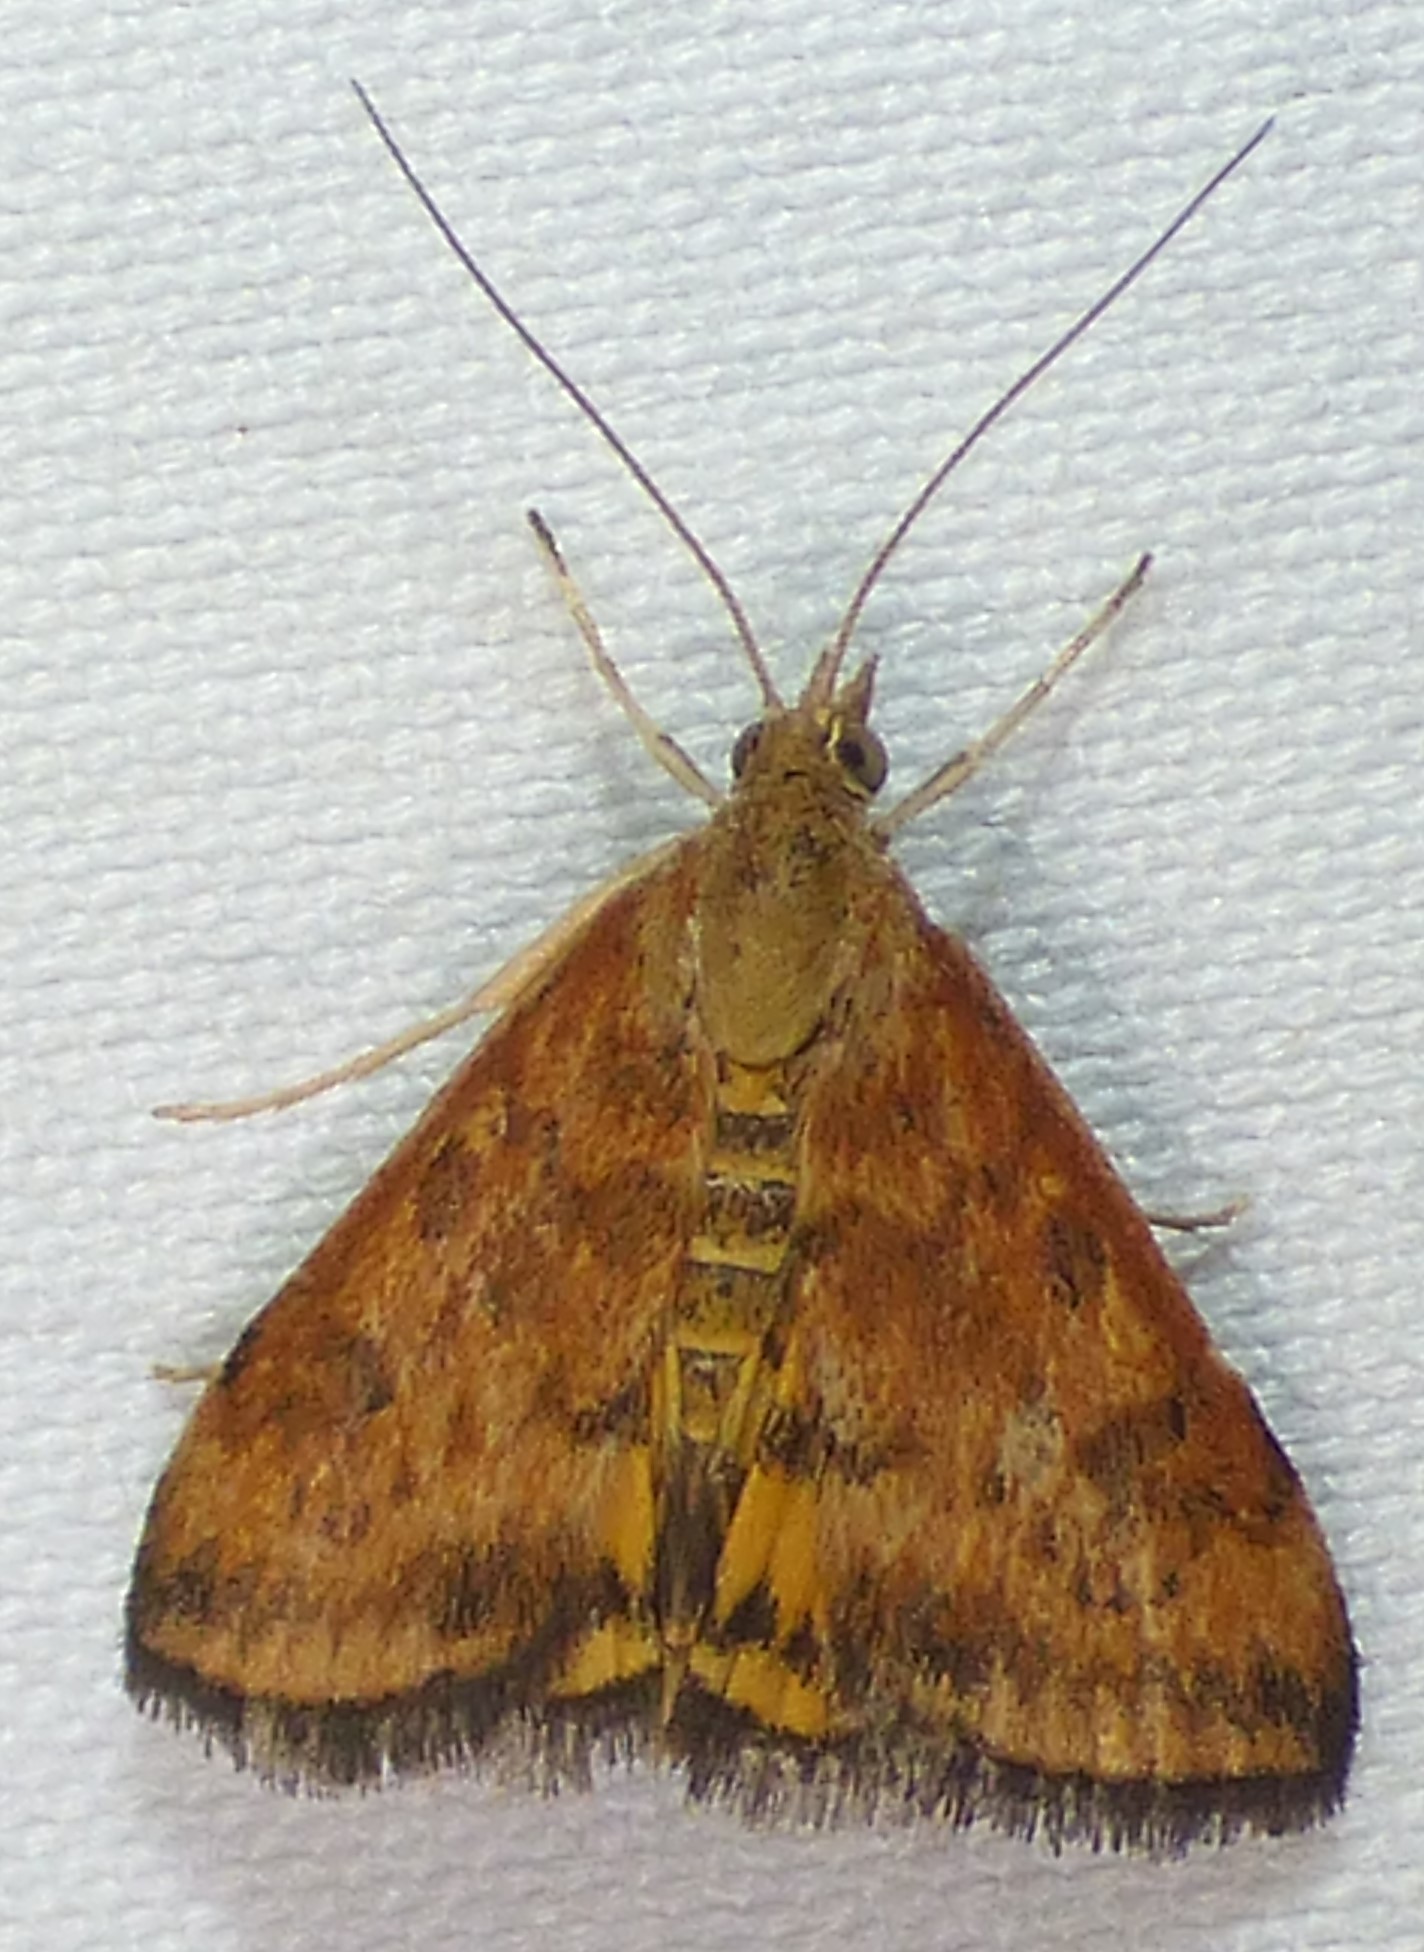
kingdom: Animalia
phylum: Arthropoda
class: Insecta
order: Lepidoptera
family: Crambidae
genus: Pyrausta
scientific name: Pyrausta subsequalis
